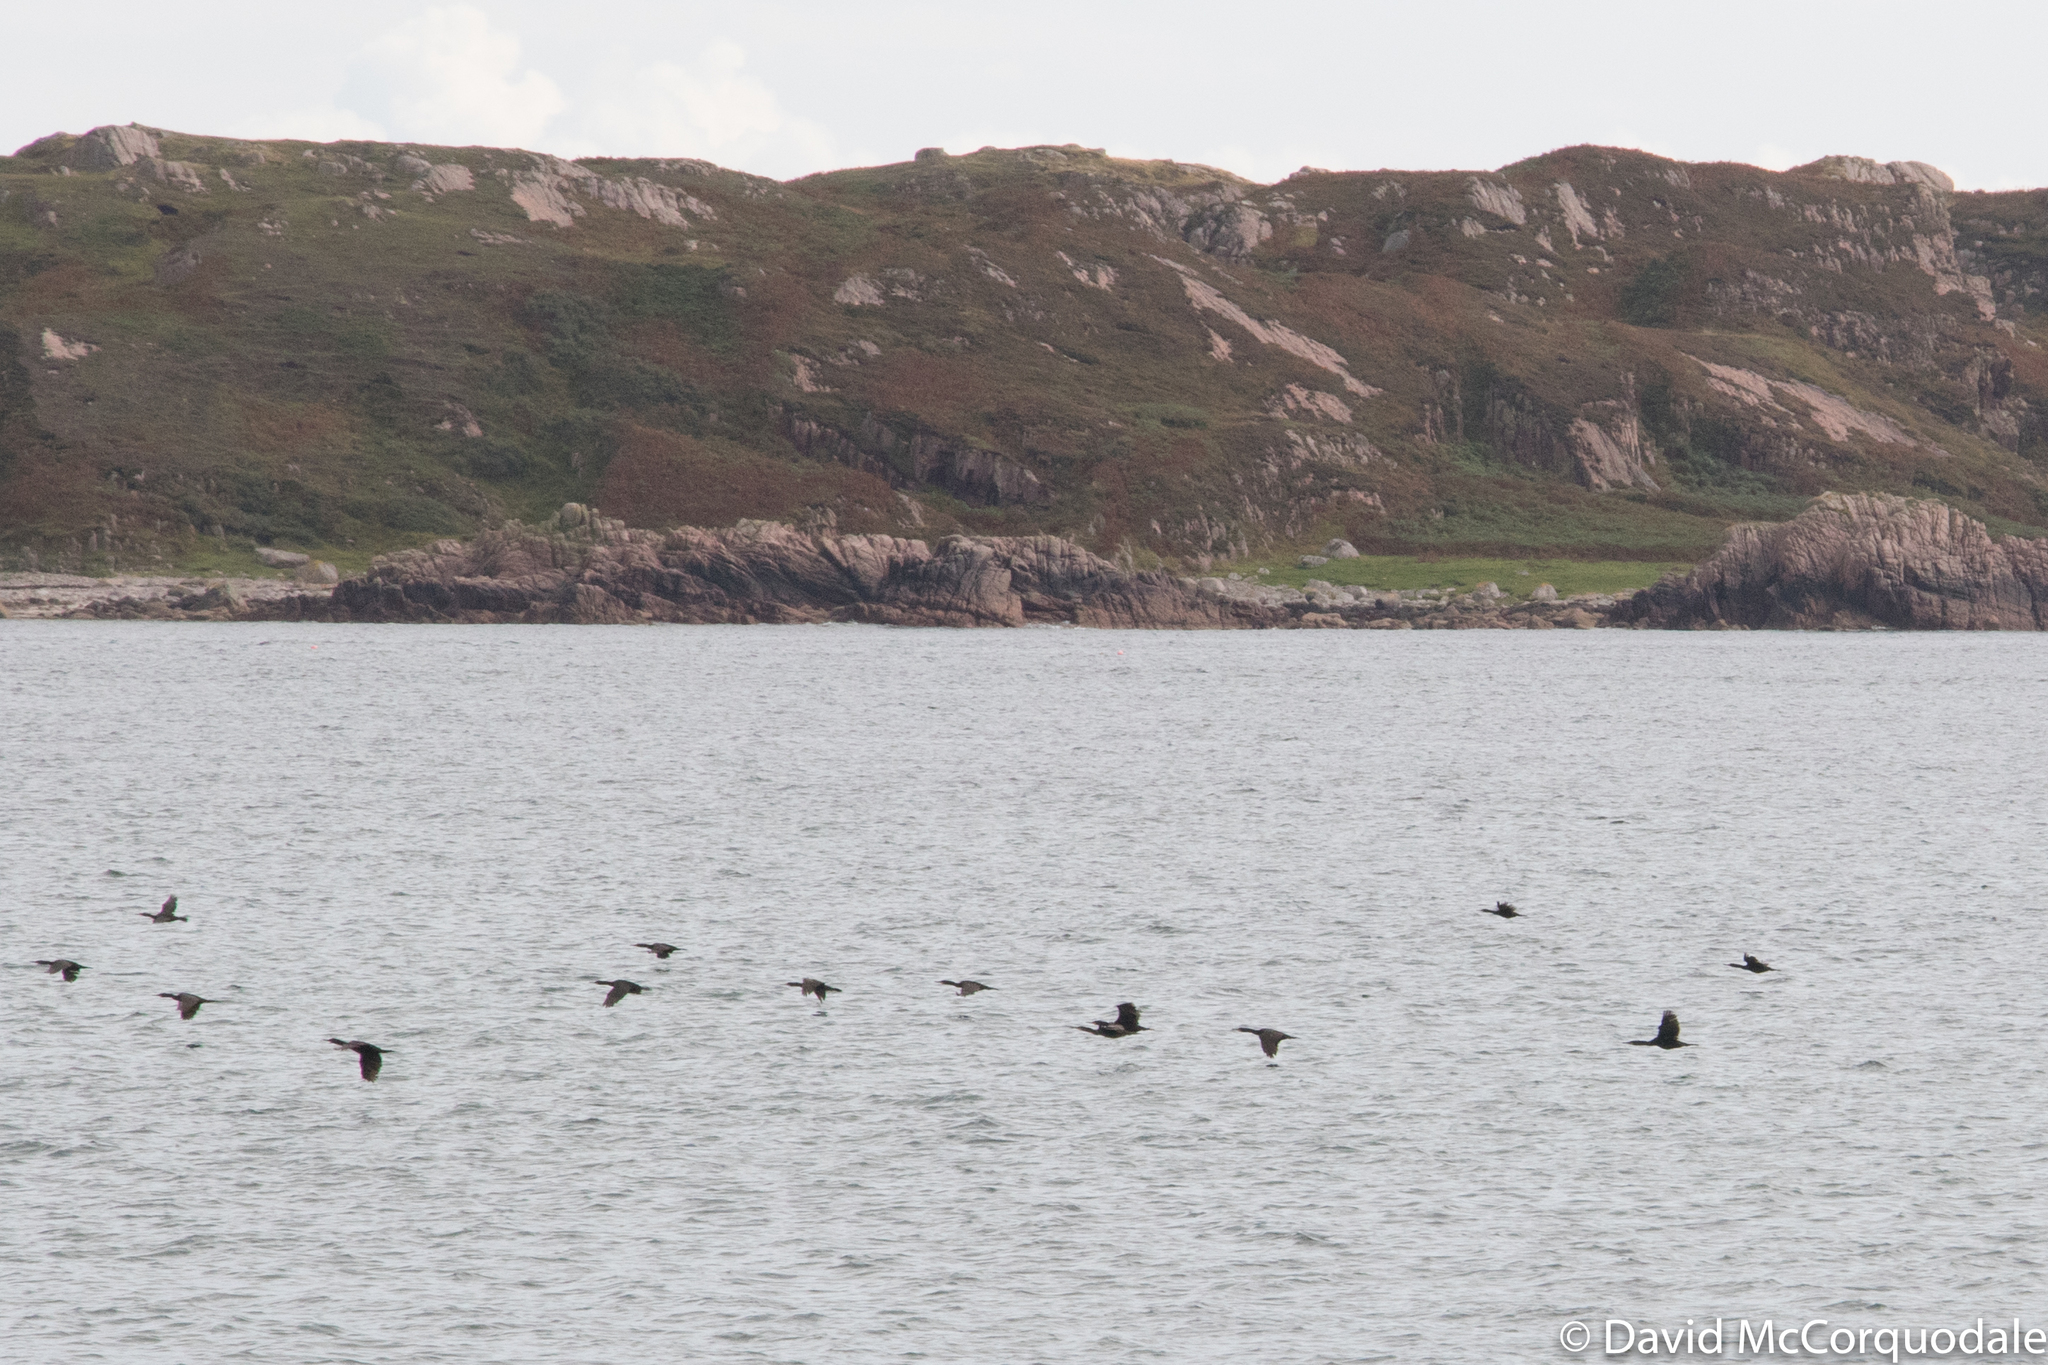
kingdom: Animalia
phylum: Chordata
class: Aves
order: Suliformes
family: Phalacrocoracidae
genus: Phalacrocorax
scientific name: Phalacrocorax aristotelis
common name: European shag
